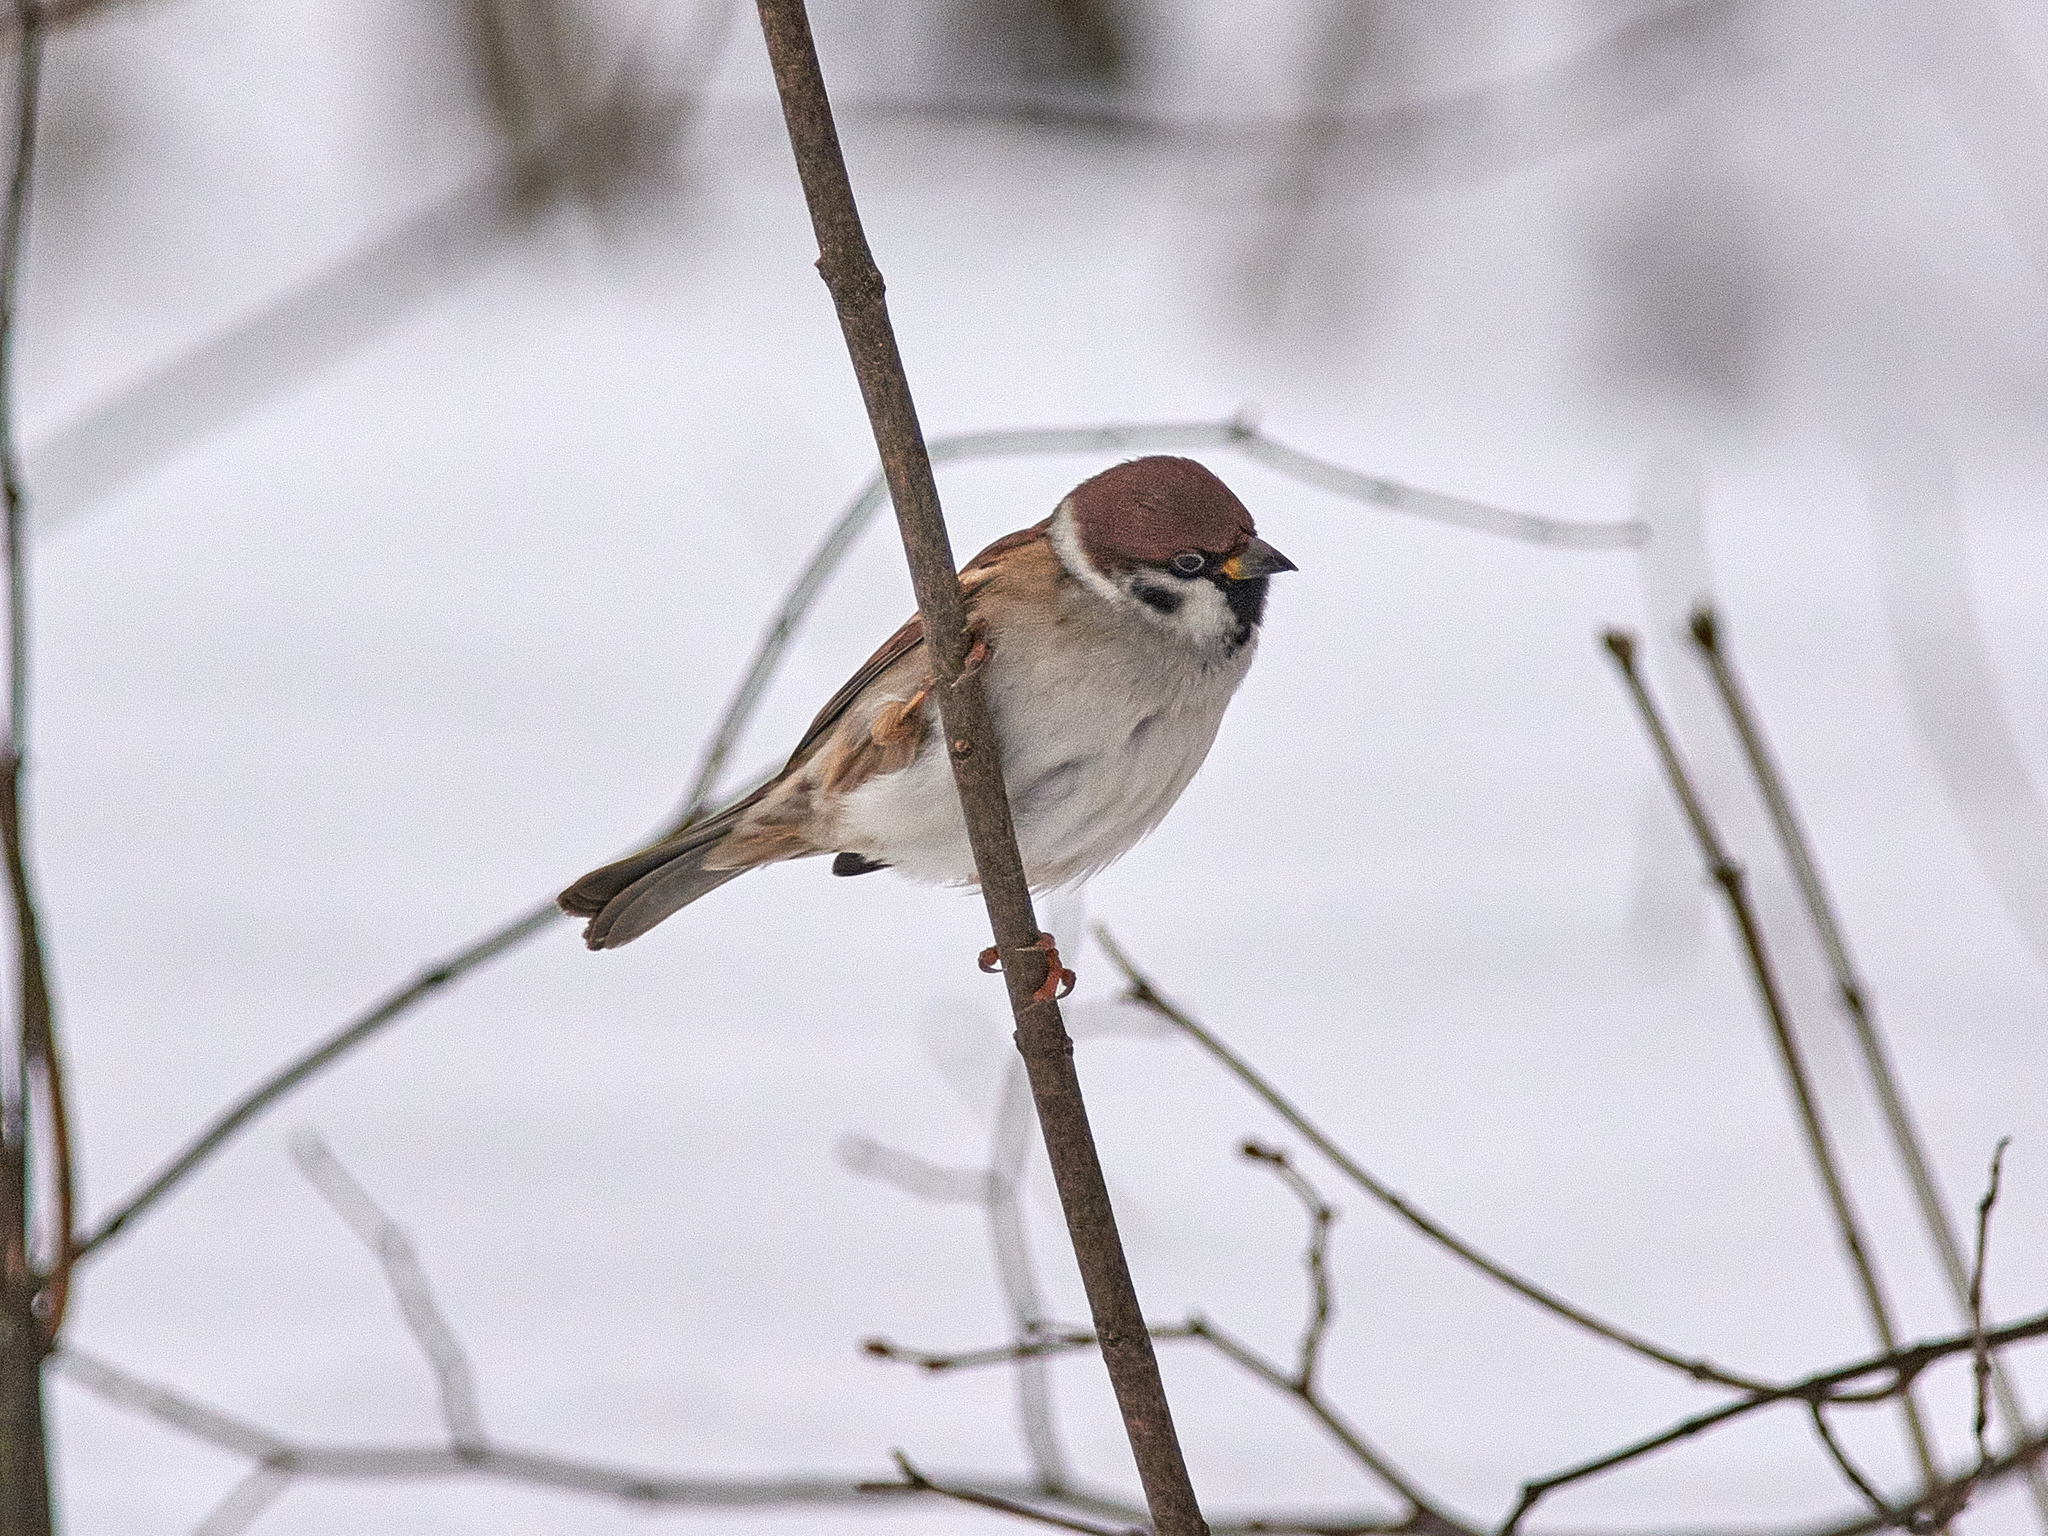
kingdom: Animalia
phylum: Chordata
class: Aves
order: Passeriformes
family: Passeridae
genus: Passer
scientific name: Passer montanus
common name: Eurasian tree sparrow
